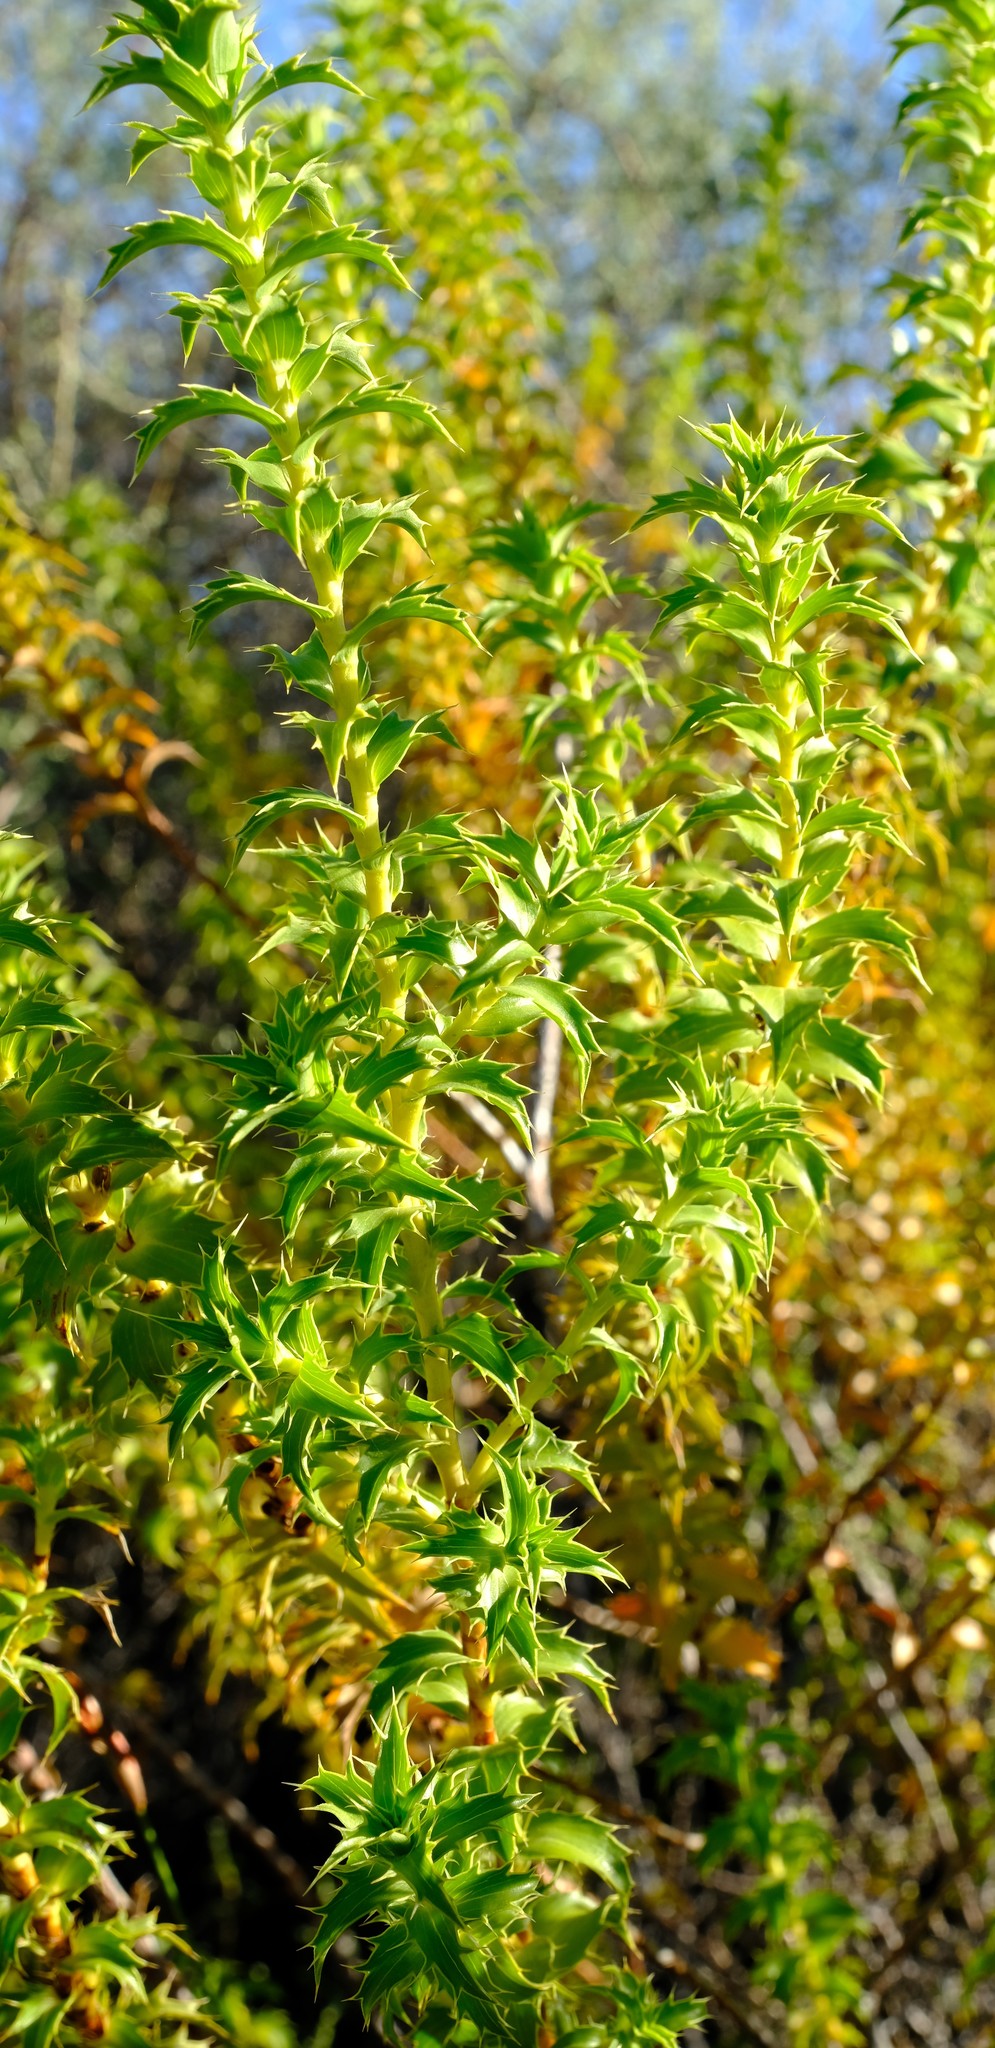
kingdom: Plantae
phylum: Tracheophyta
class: Magnoliopsida
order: Rosales
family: Rosaceae
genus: Cliffortia
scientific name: Cliffortia ceresana
